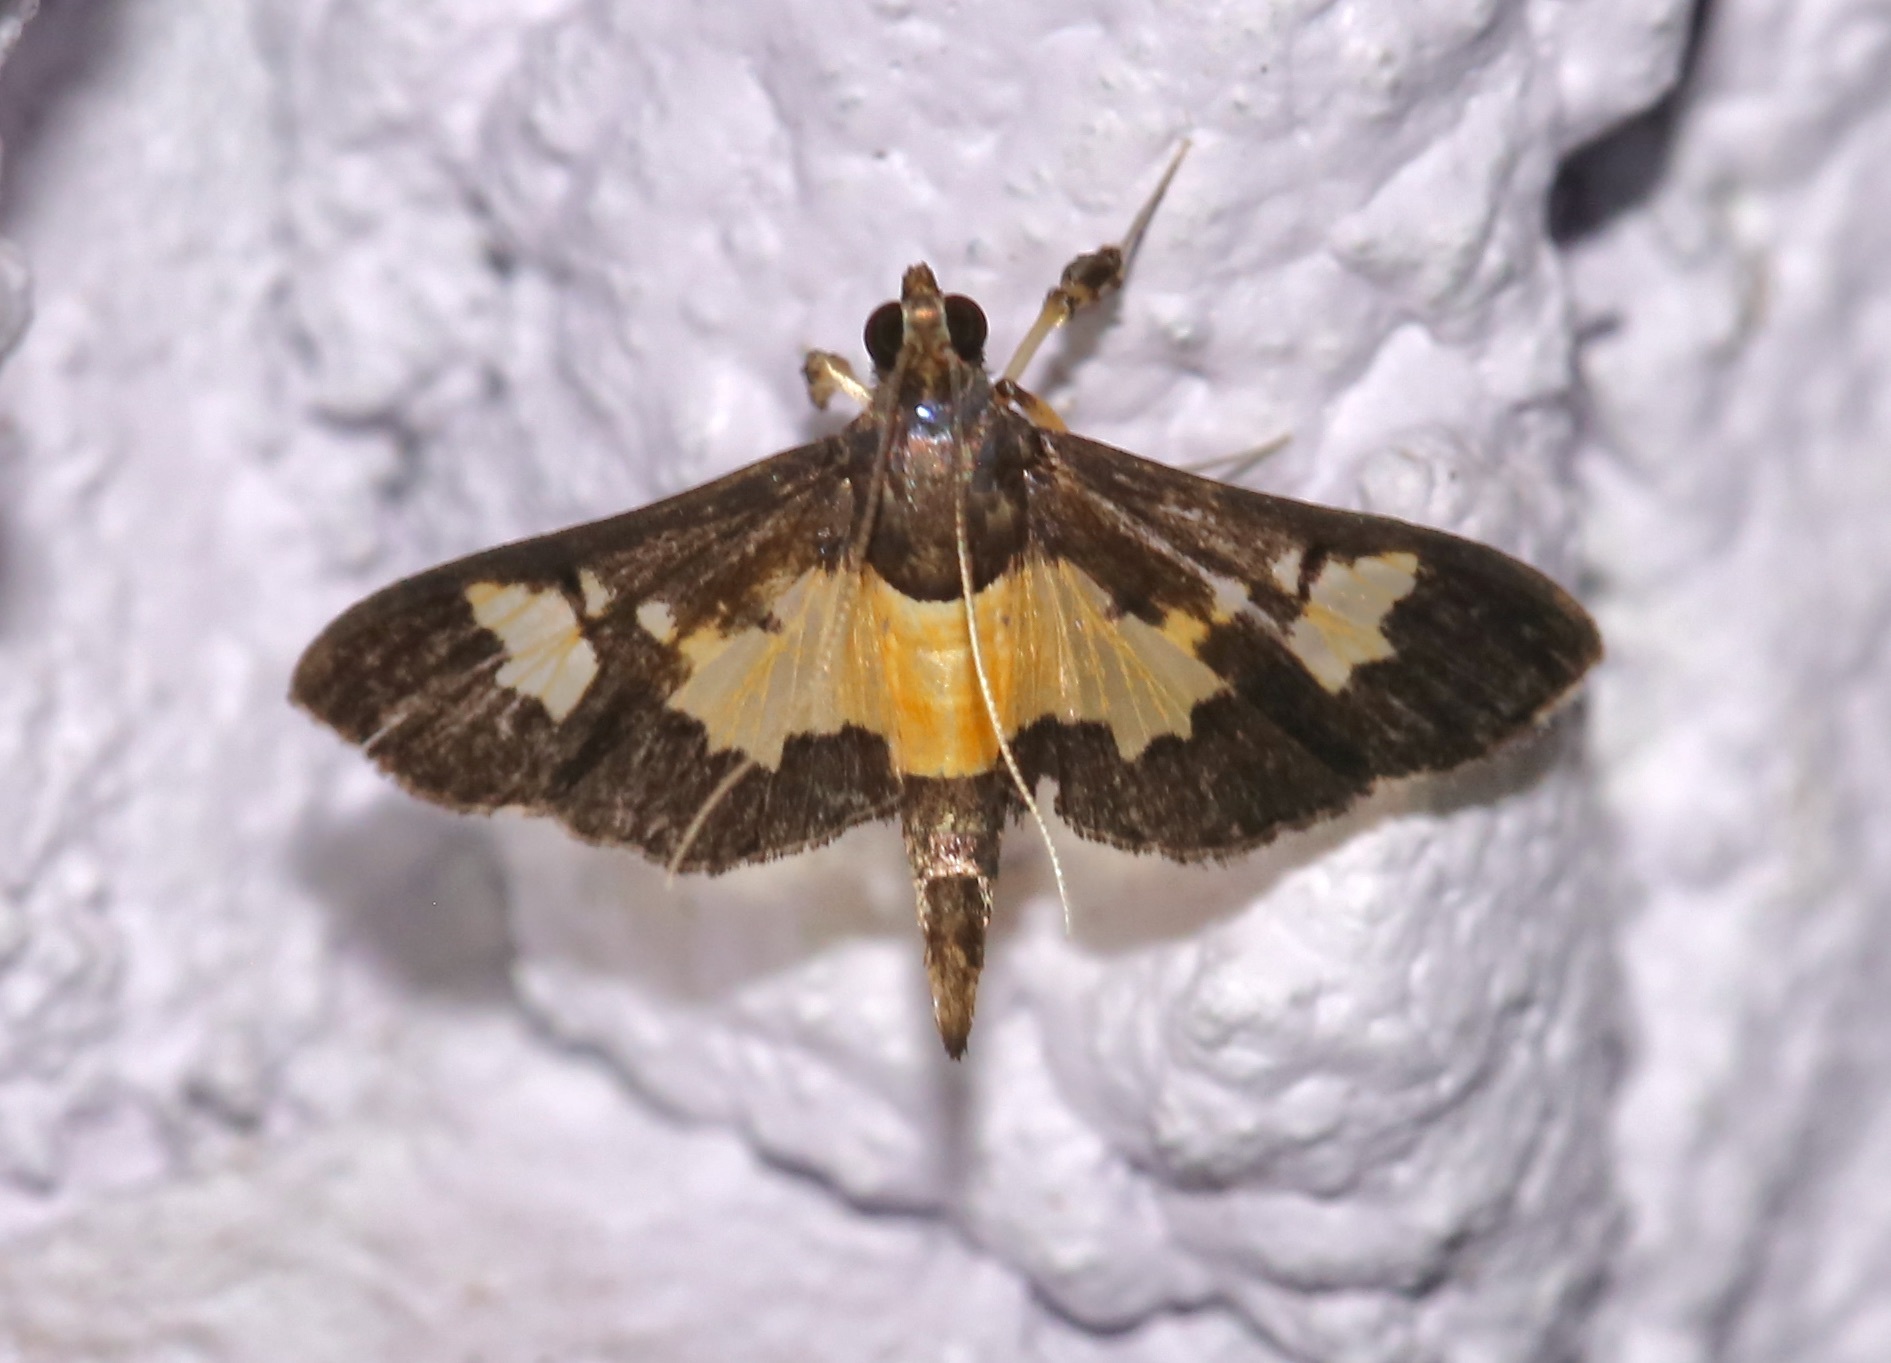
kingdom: Animalia
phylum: Arthropoda
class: Insecta
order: Lepidoptera
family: Crambidae
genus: Salbia
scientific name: Salbia zena
